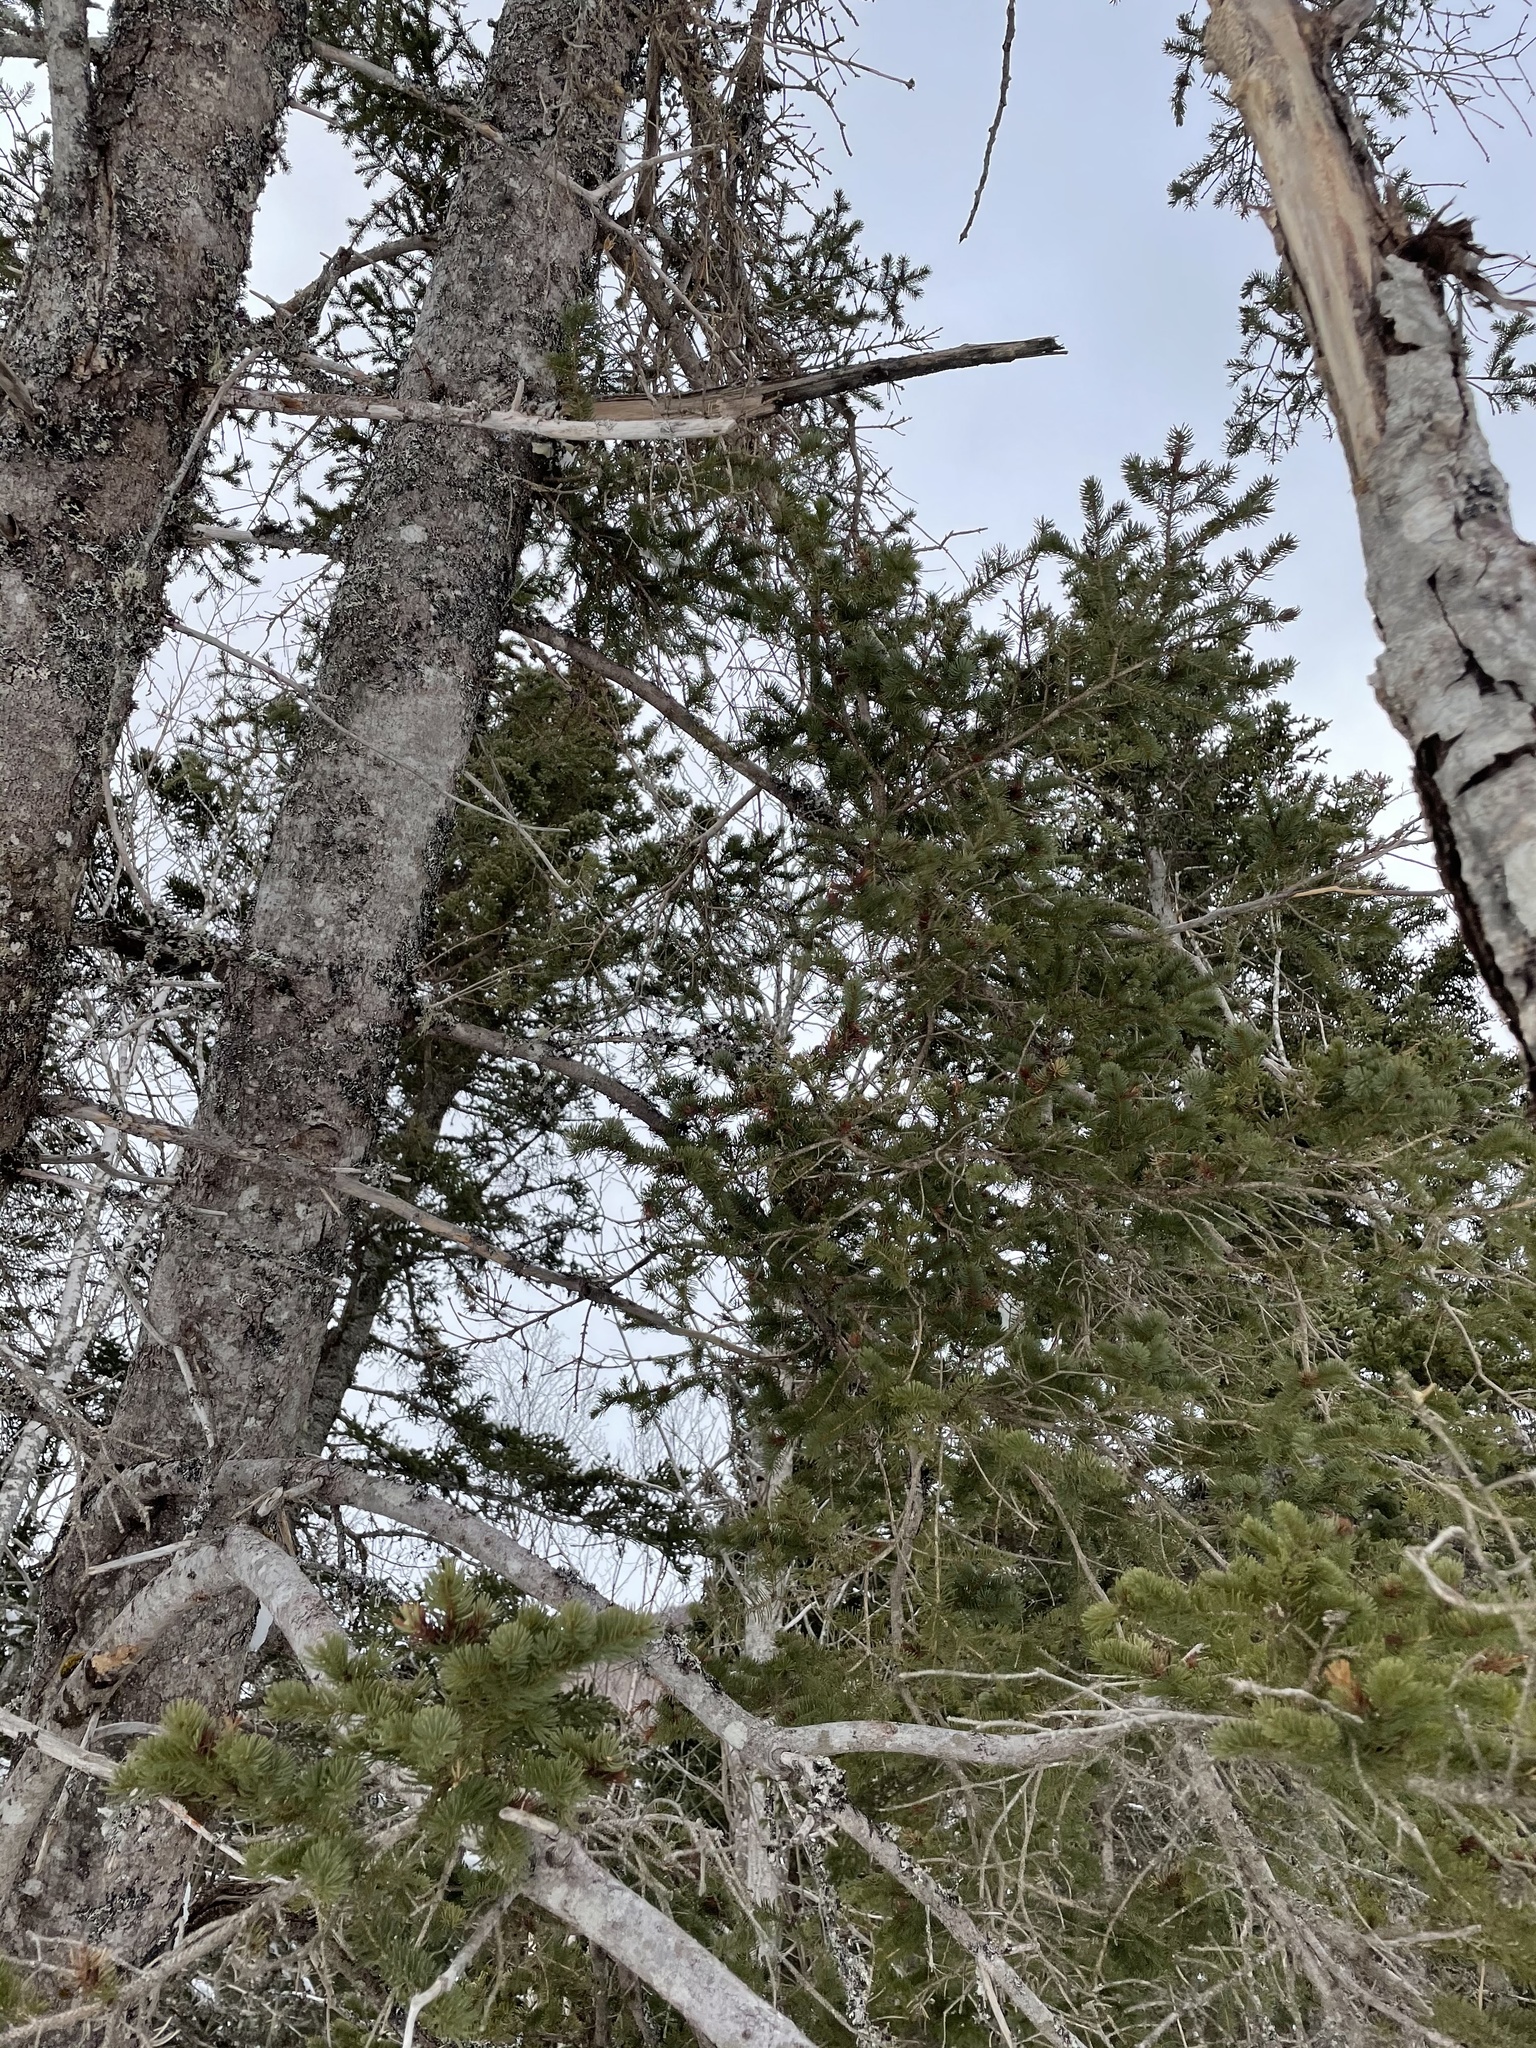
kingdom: Plantae
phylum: Tracheophyta
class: Pinopsida
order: Pinales
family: Pinaceae
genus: Picea
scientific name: Picea glauca
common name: White spruce
